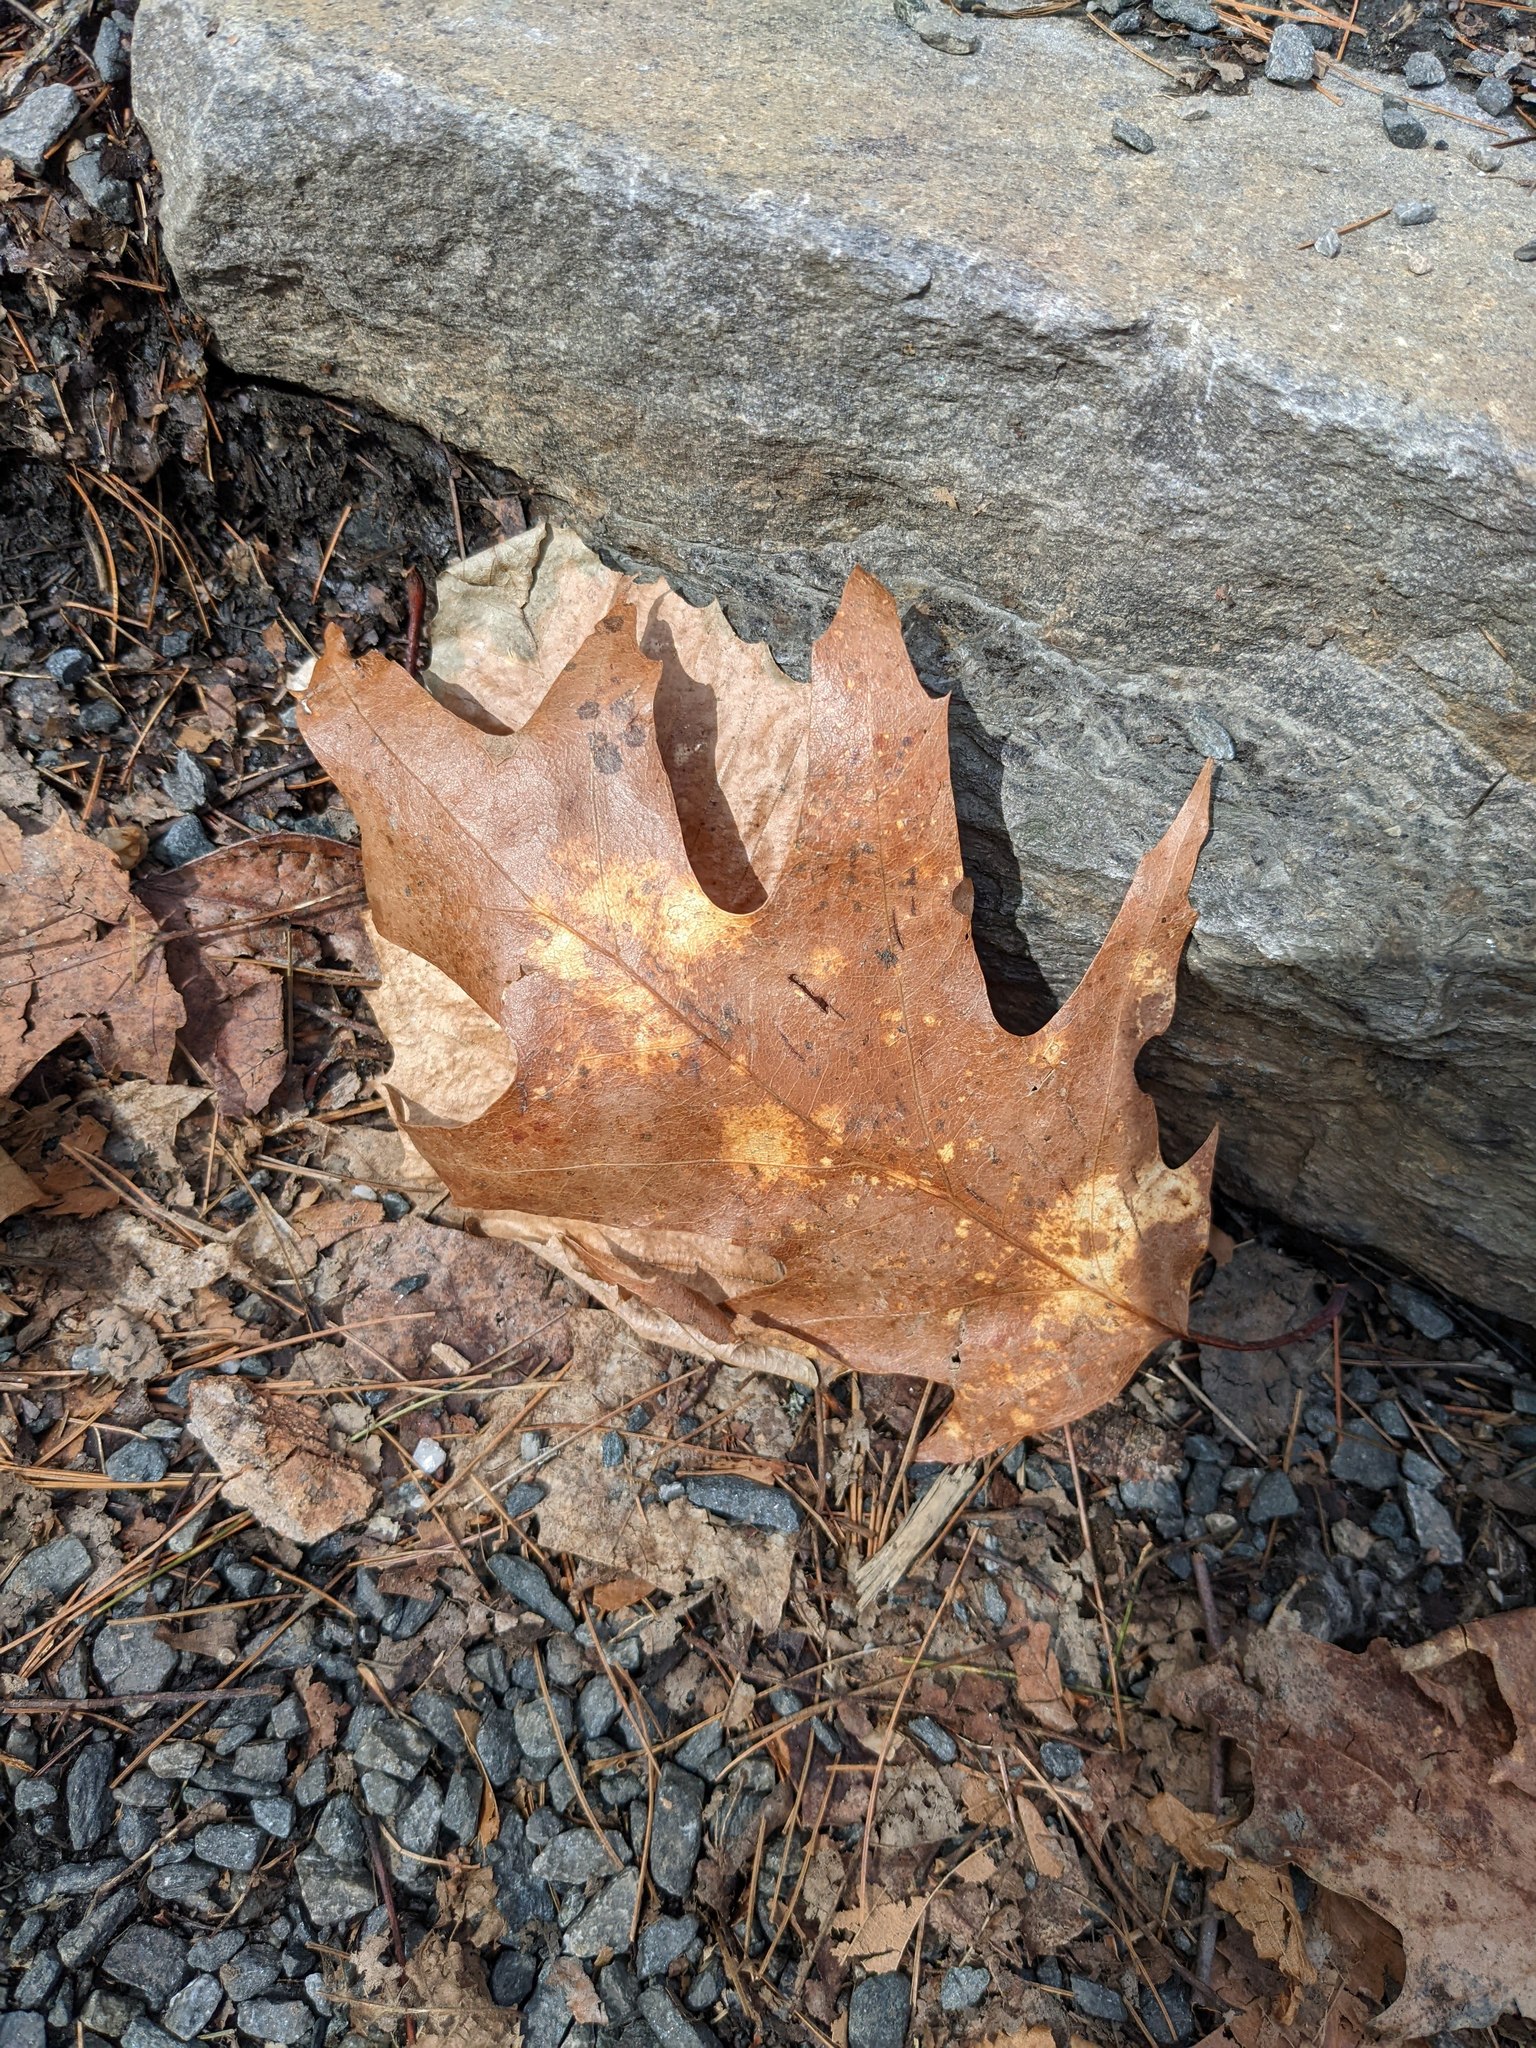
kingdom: Plantae
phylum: Tracheophyta
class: Magnoliopsida
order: Fagales
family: Fagaceae
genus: Quercus
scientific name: Quercus rubra
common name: Red oak
